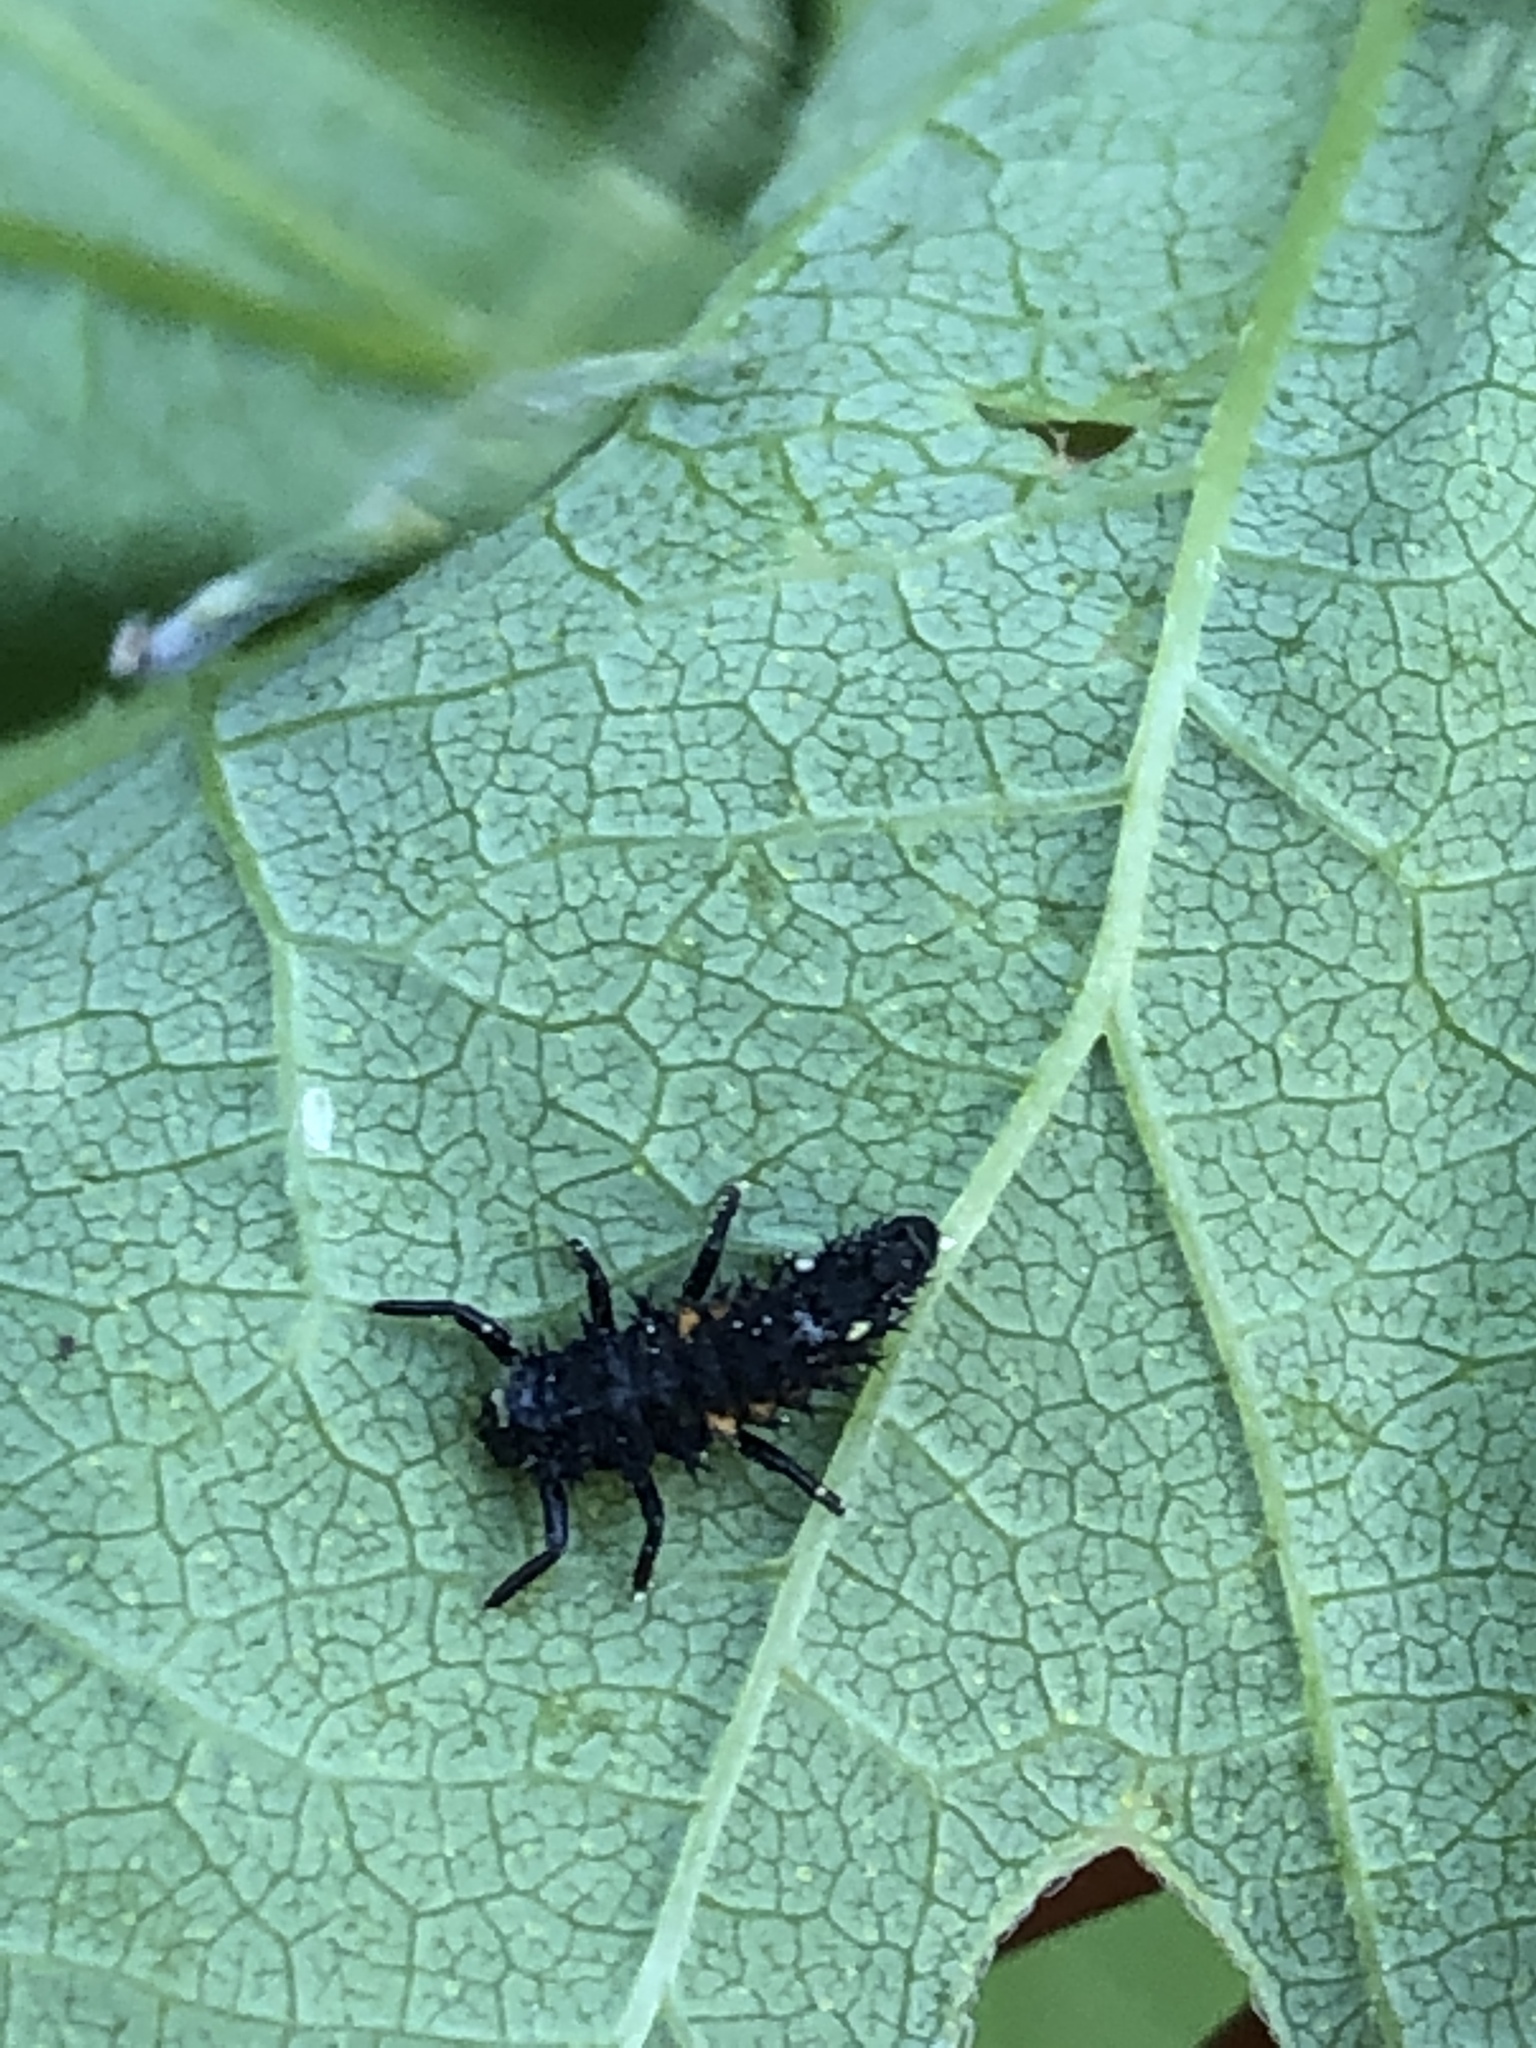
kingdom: Animalia
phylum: Arthropoda
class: Insecta
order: Coleoptera
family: Coccinellidae
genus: Harmonia
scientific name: Harmonia axyridis
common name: Harlequin ladybird
